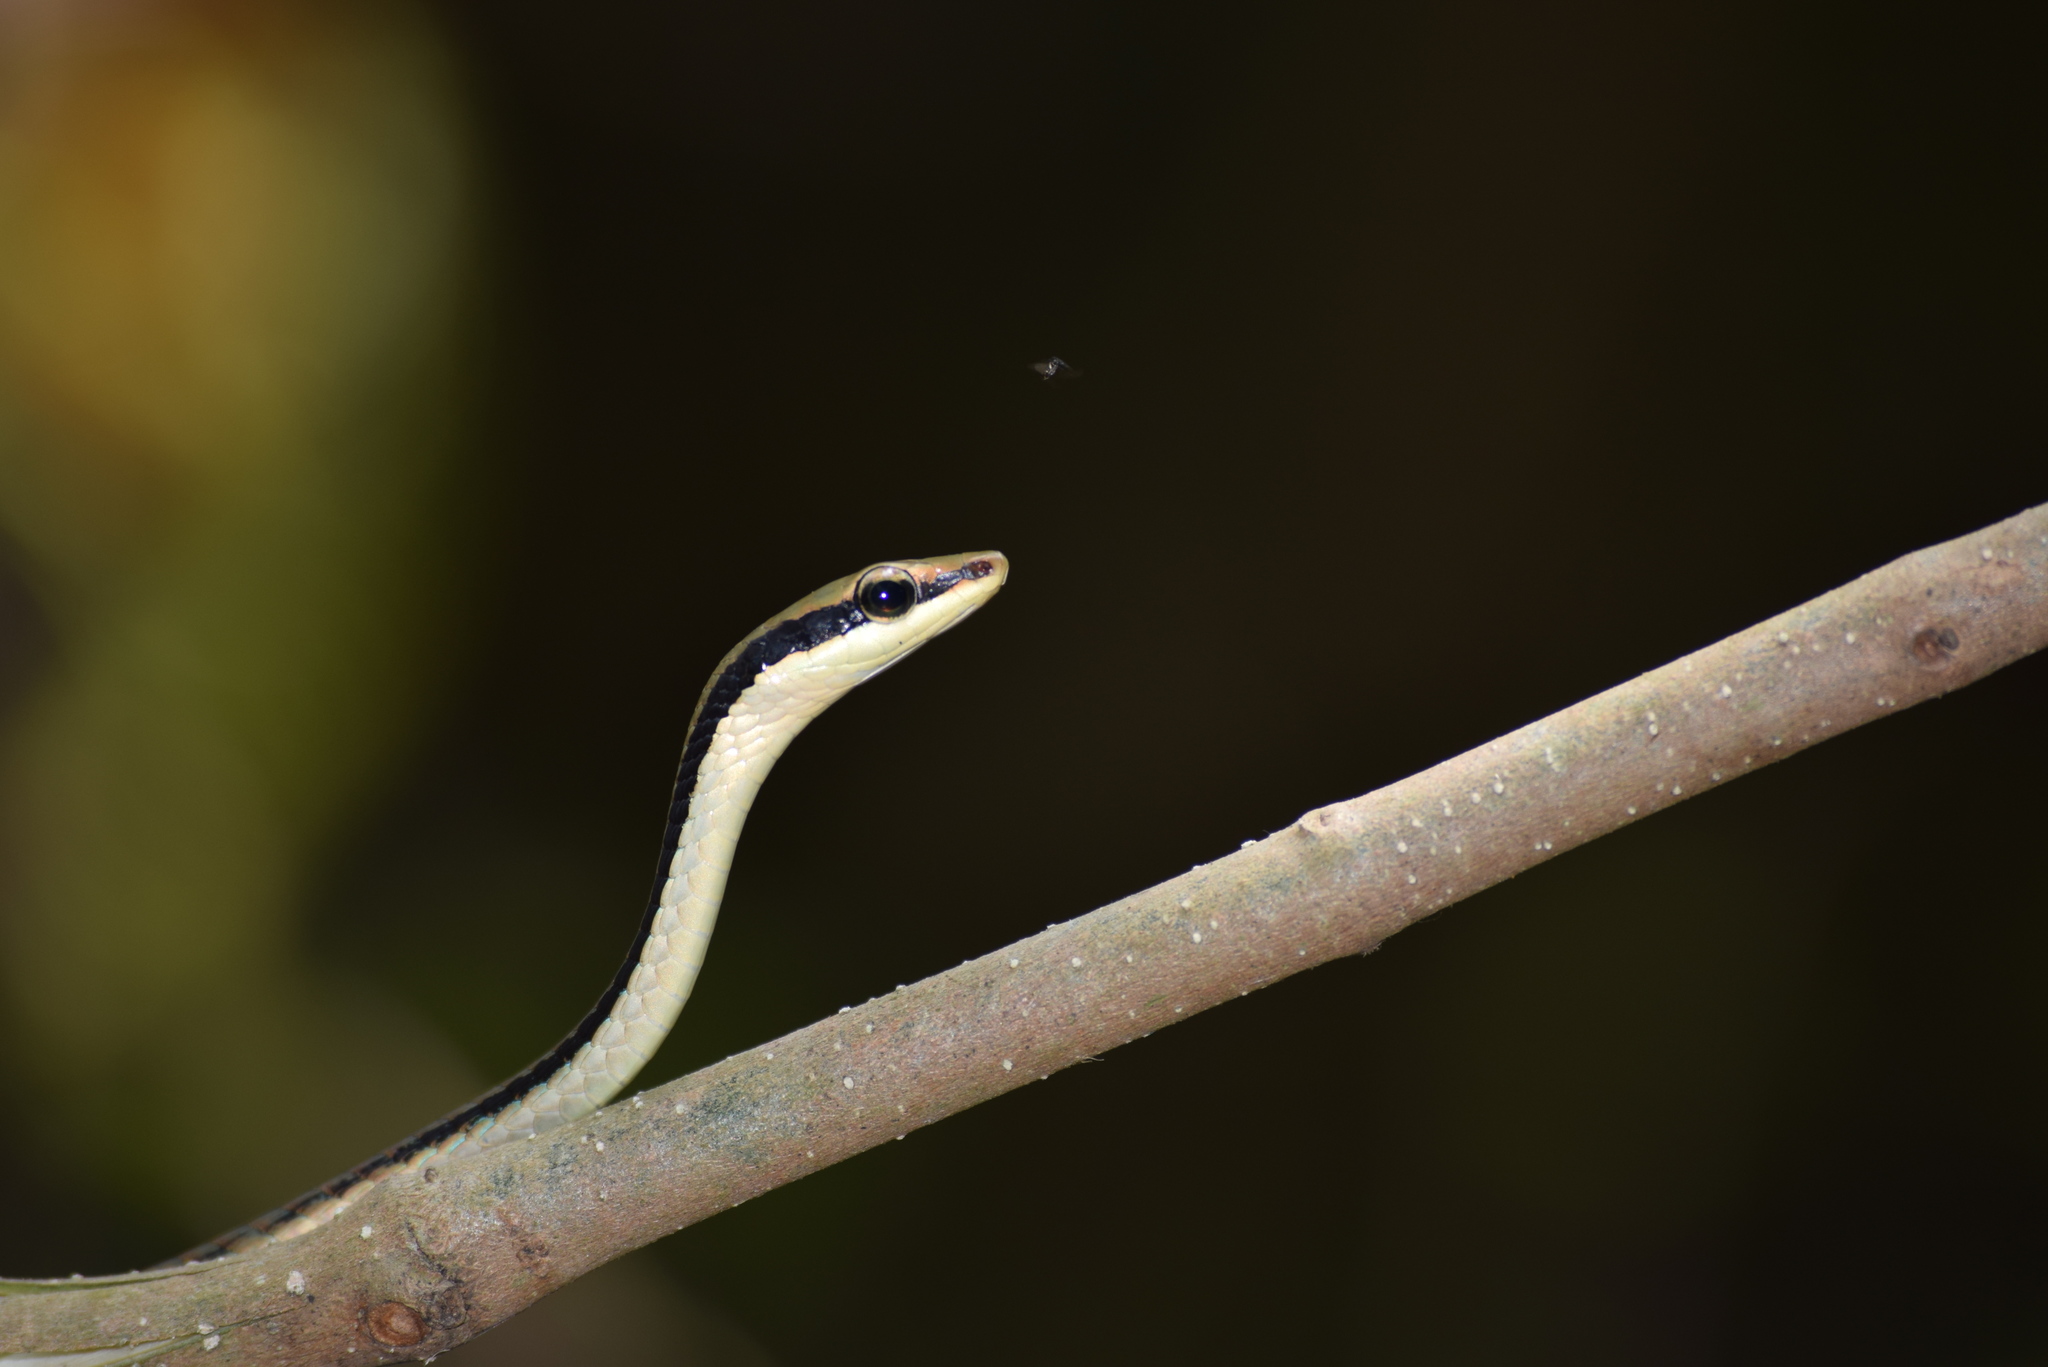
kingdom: Animalia
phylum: Chordata
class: Squamata
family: Colubridae
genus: Dendrelaphis
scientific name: Dendrelaphis ashoki
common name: Ashok’s bronzeback tree snake
